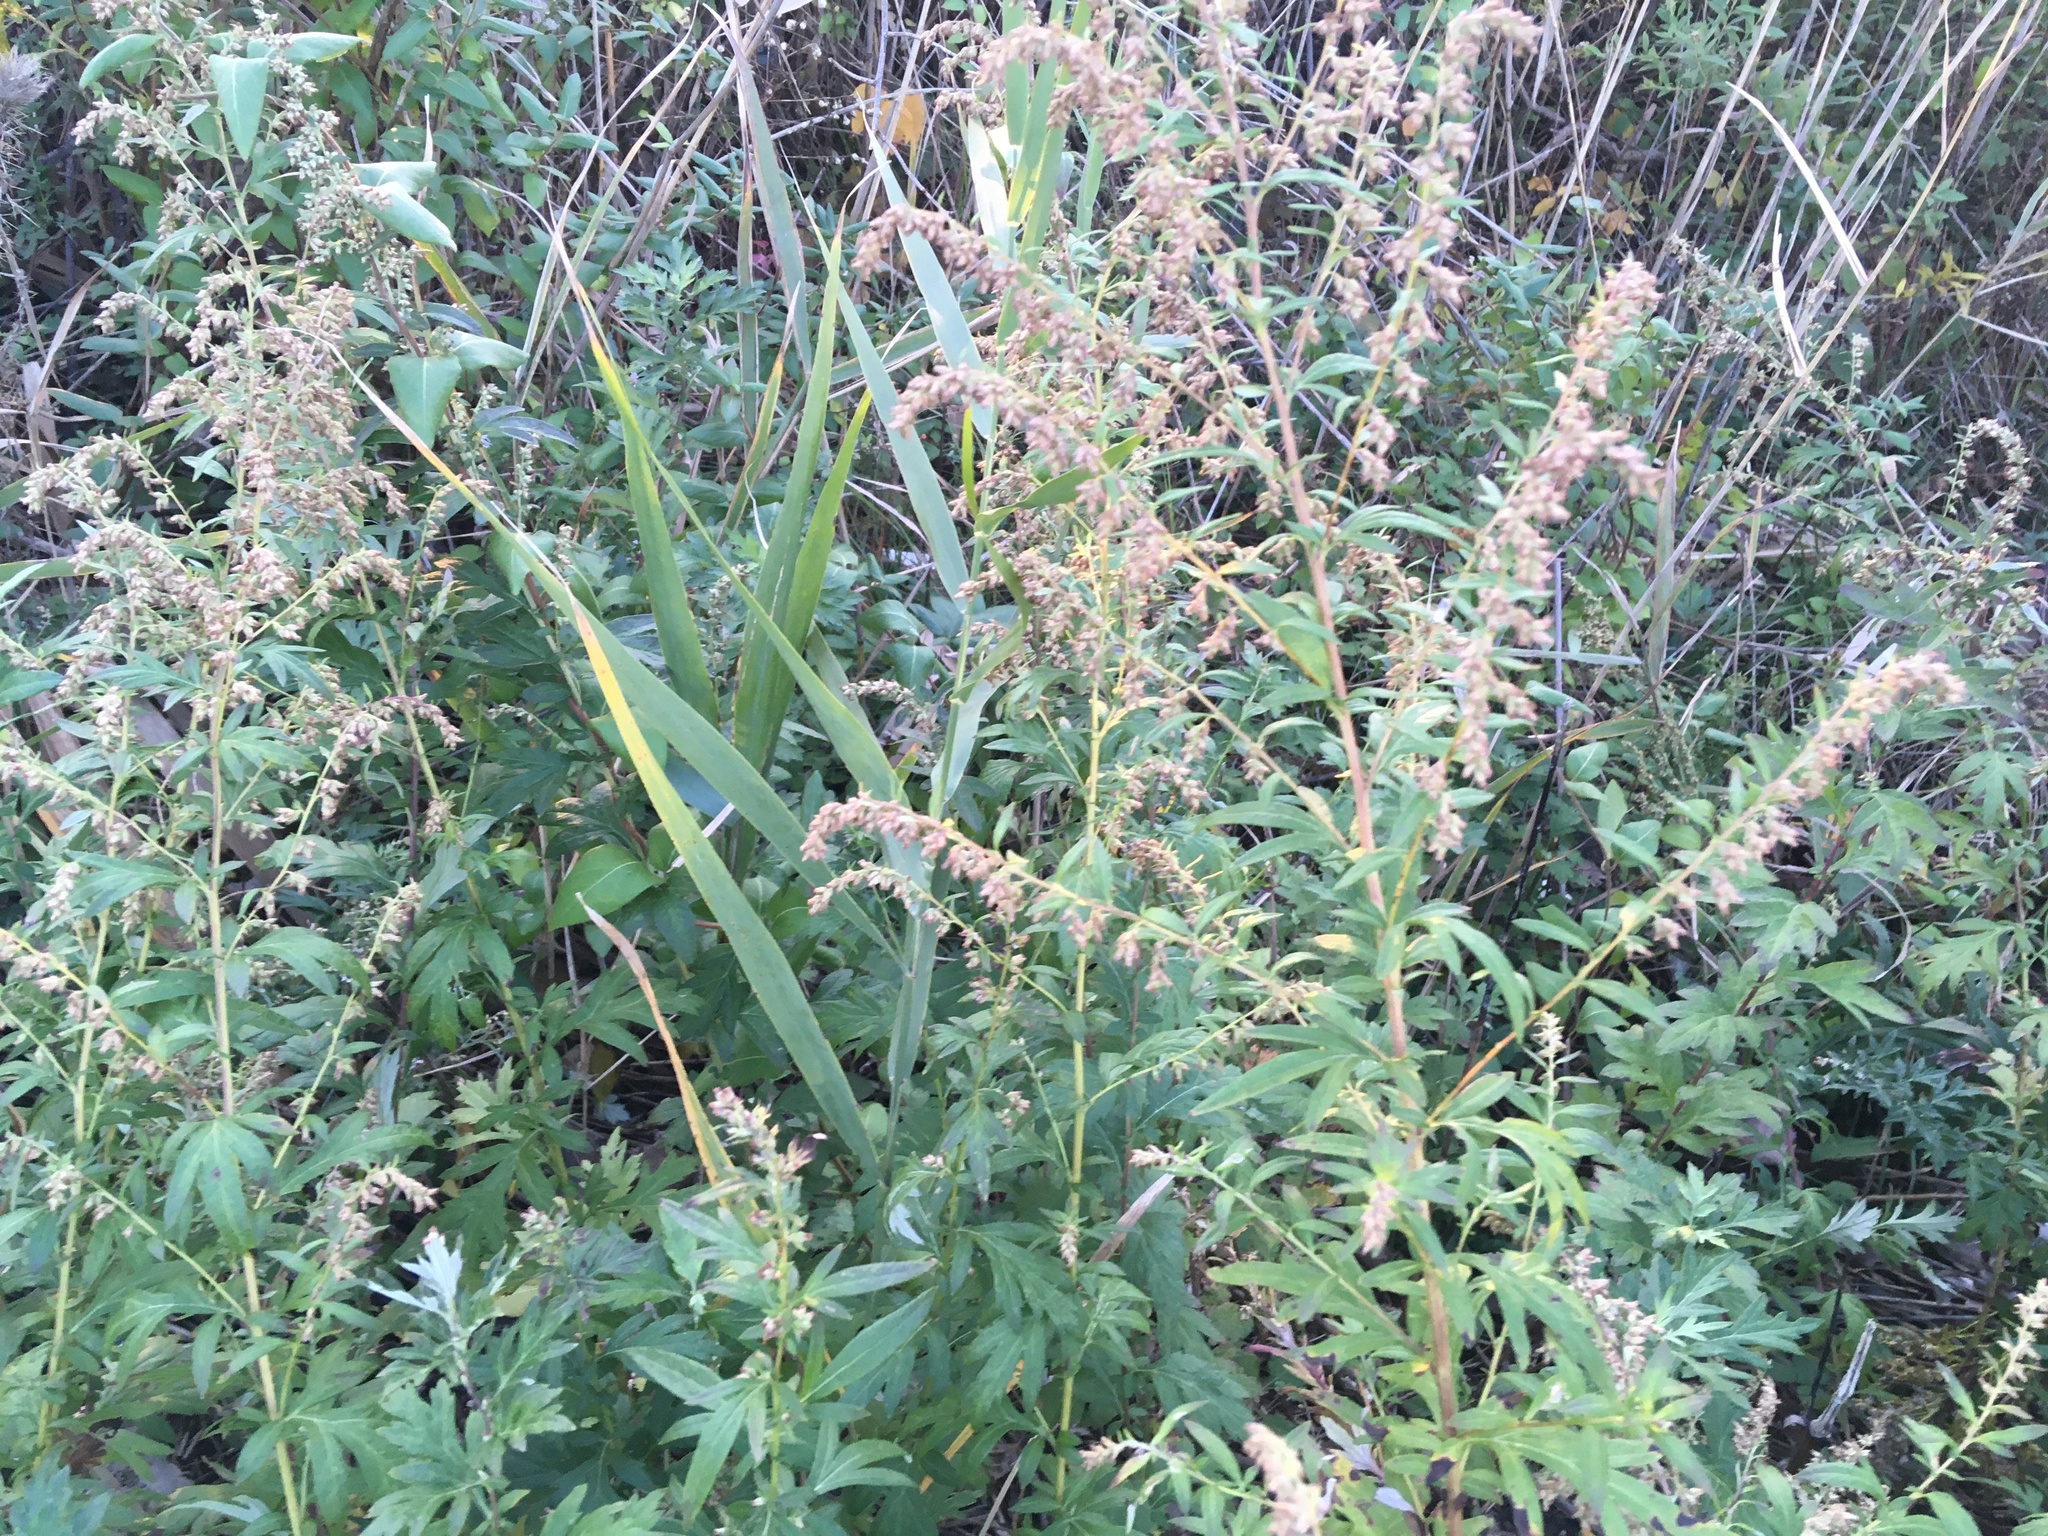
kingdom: Plantae
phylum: Tracheophyta
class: Magnoliopsida
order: Asterales
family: Asteraceae
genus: Artemisia
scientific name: Artemisia vulgaris
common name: Mugwort
